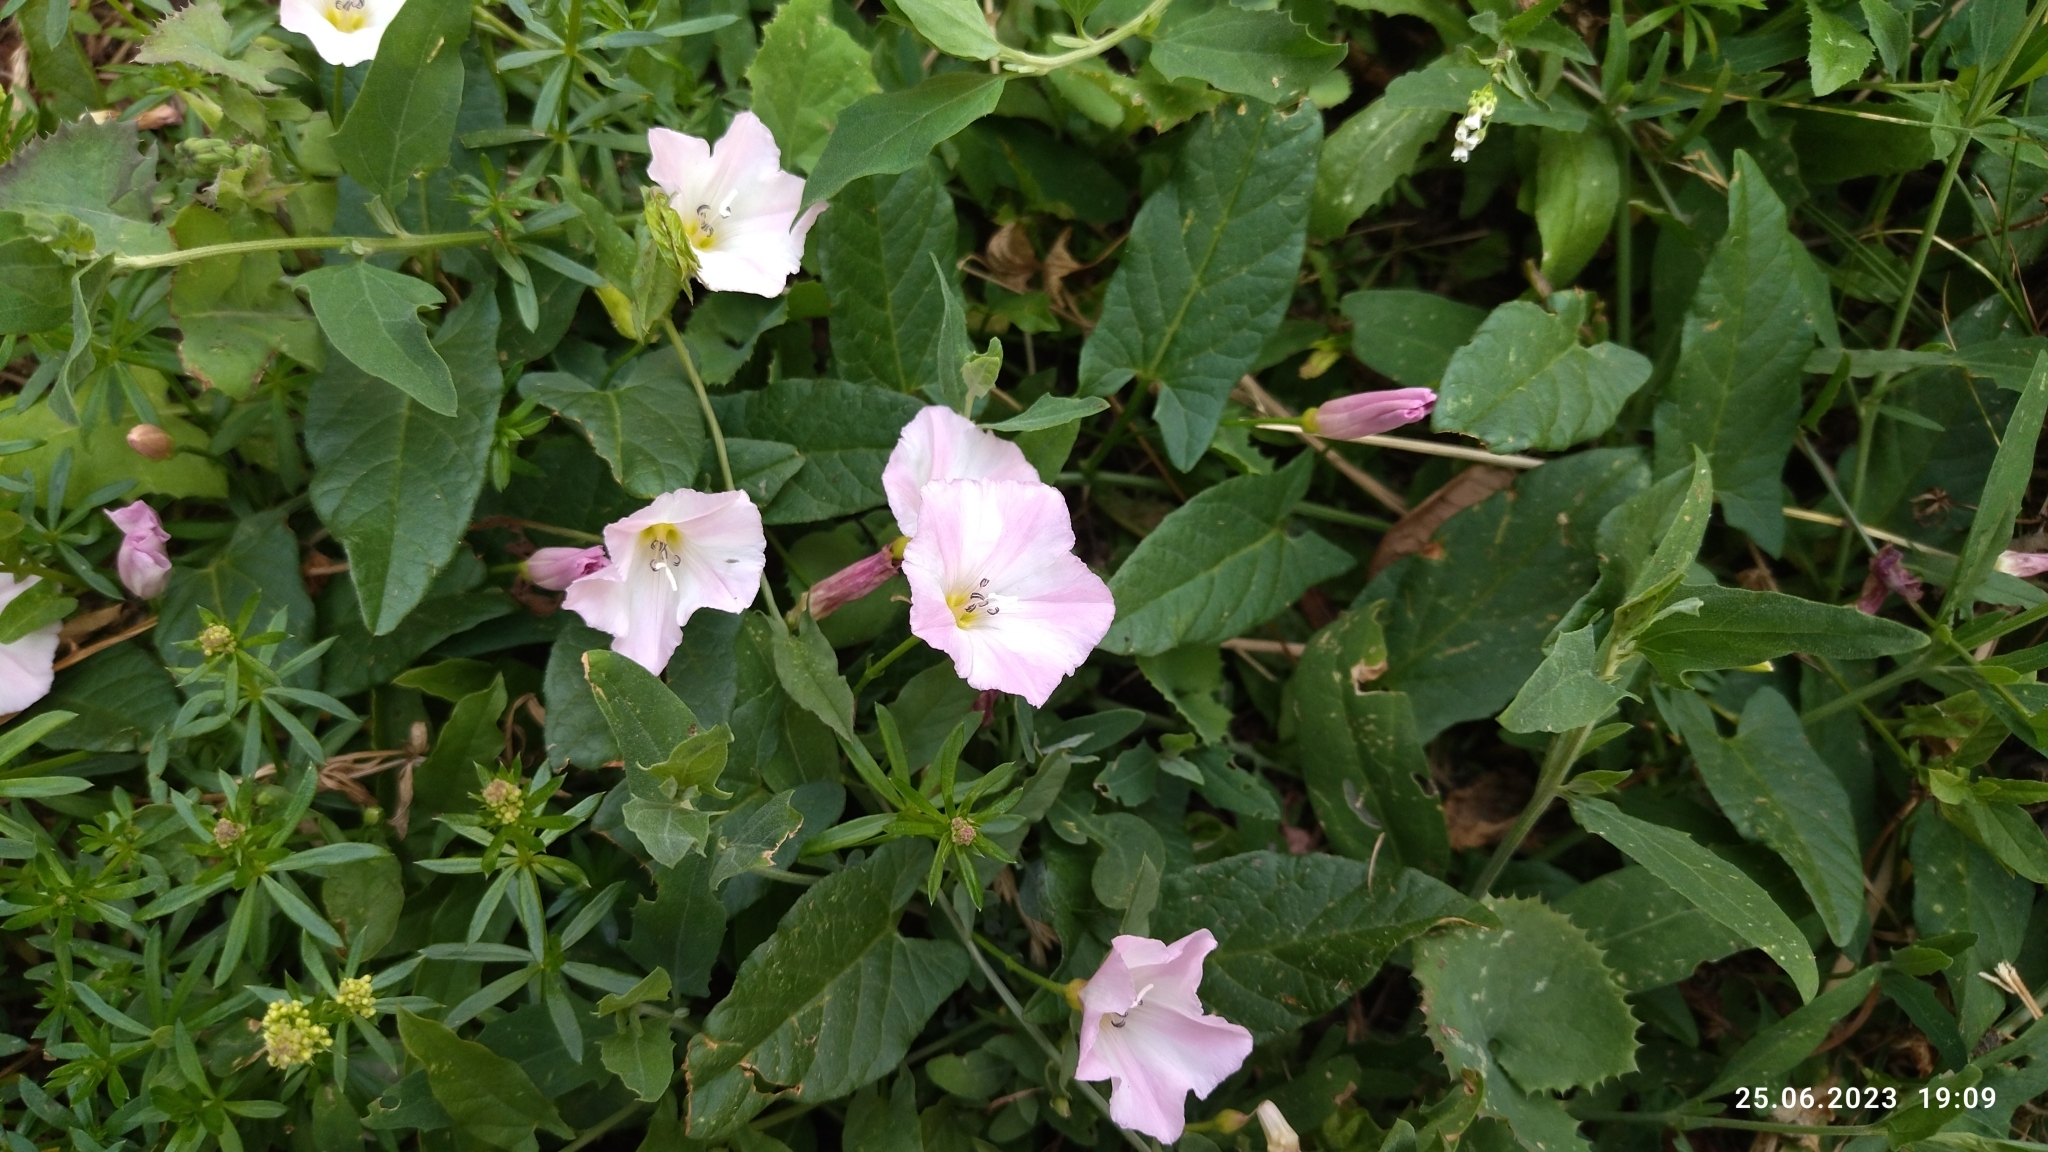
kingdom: Plantae
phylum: Tracheophyta
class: Magnoliopsida
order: Solanales
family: Convolvulaceae
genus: Convolvulus
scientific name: Convolvulus arvensis
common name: Field bindweed
